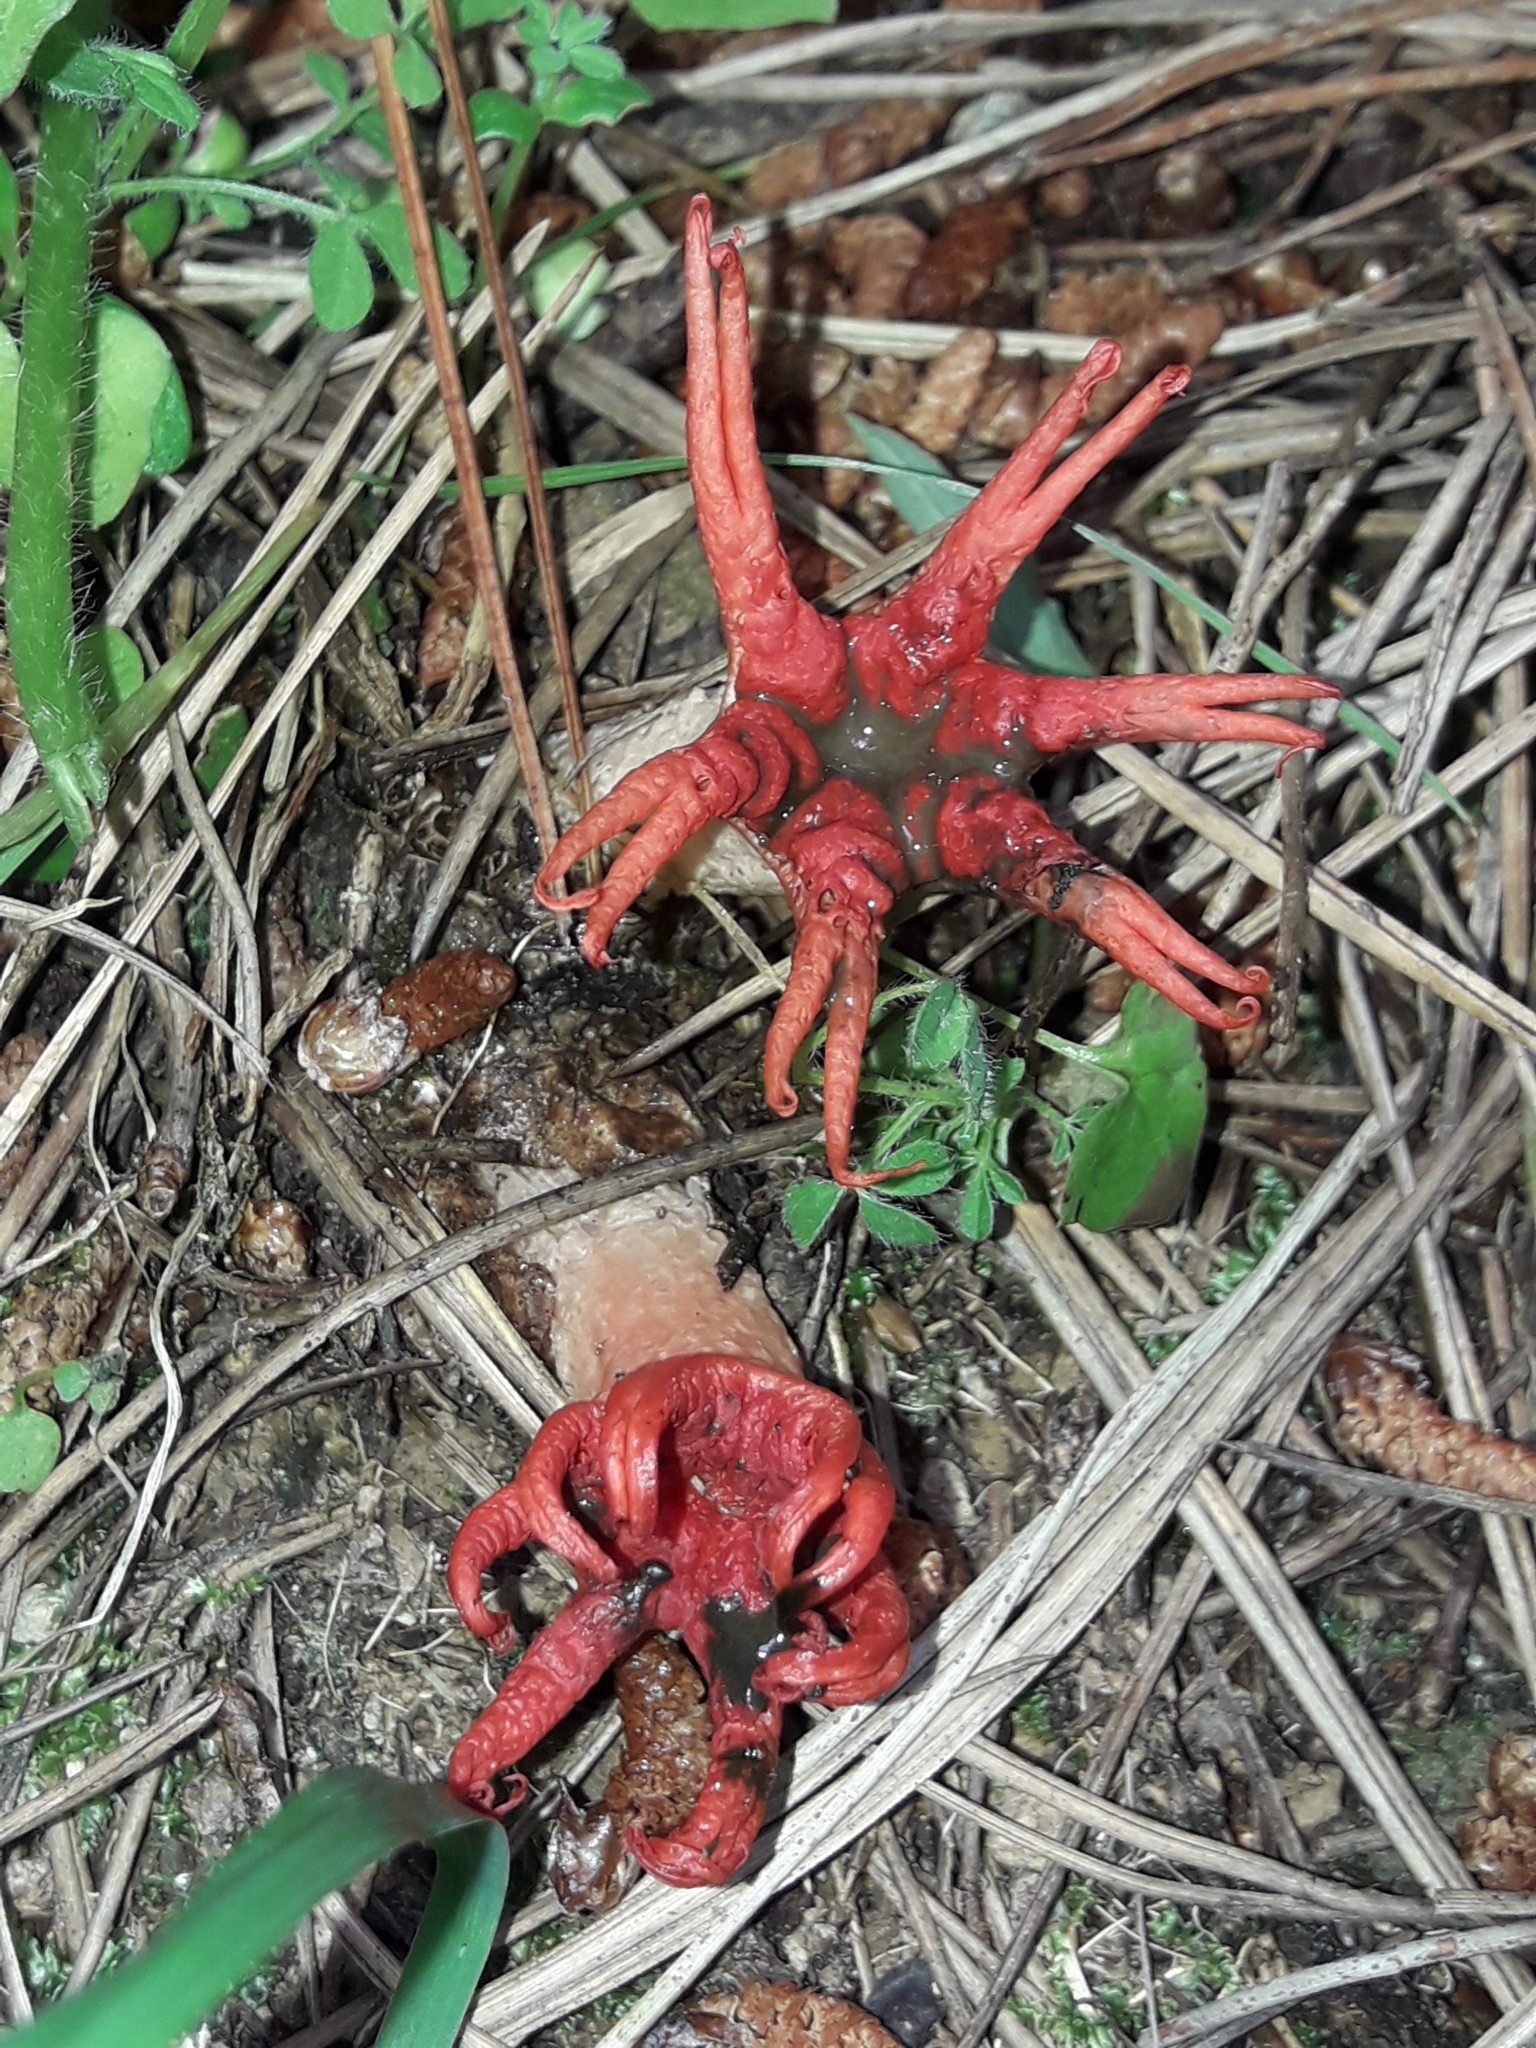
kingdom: Fungi
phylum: Basidiomycota
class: Agaricomycetes
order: Phallales
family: Phallaceae
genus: Aseroe
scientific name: Aseroe rubra
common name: Starfish fungus
